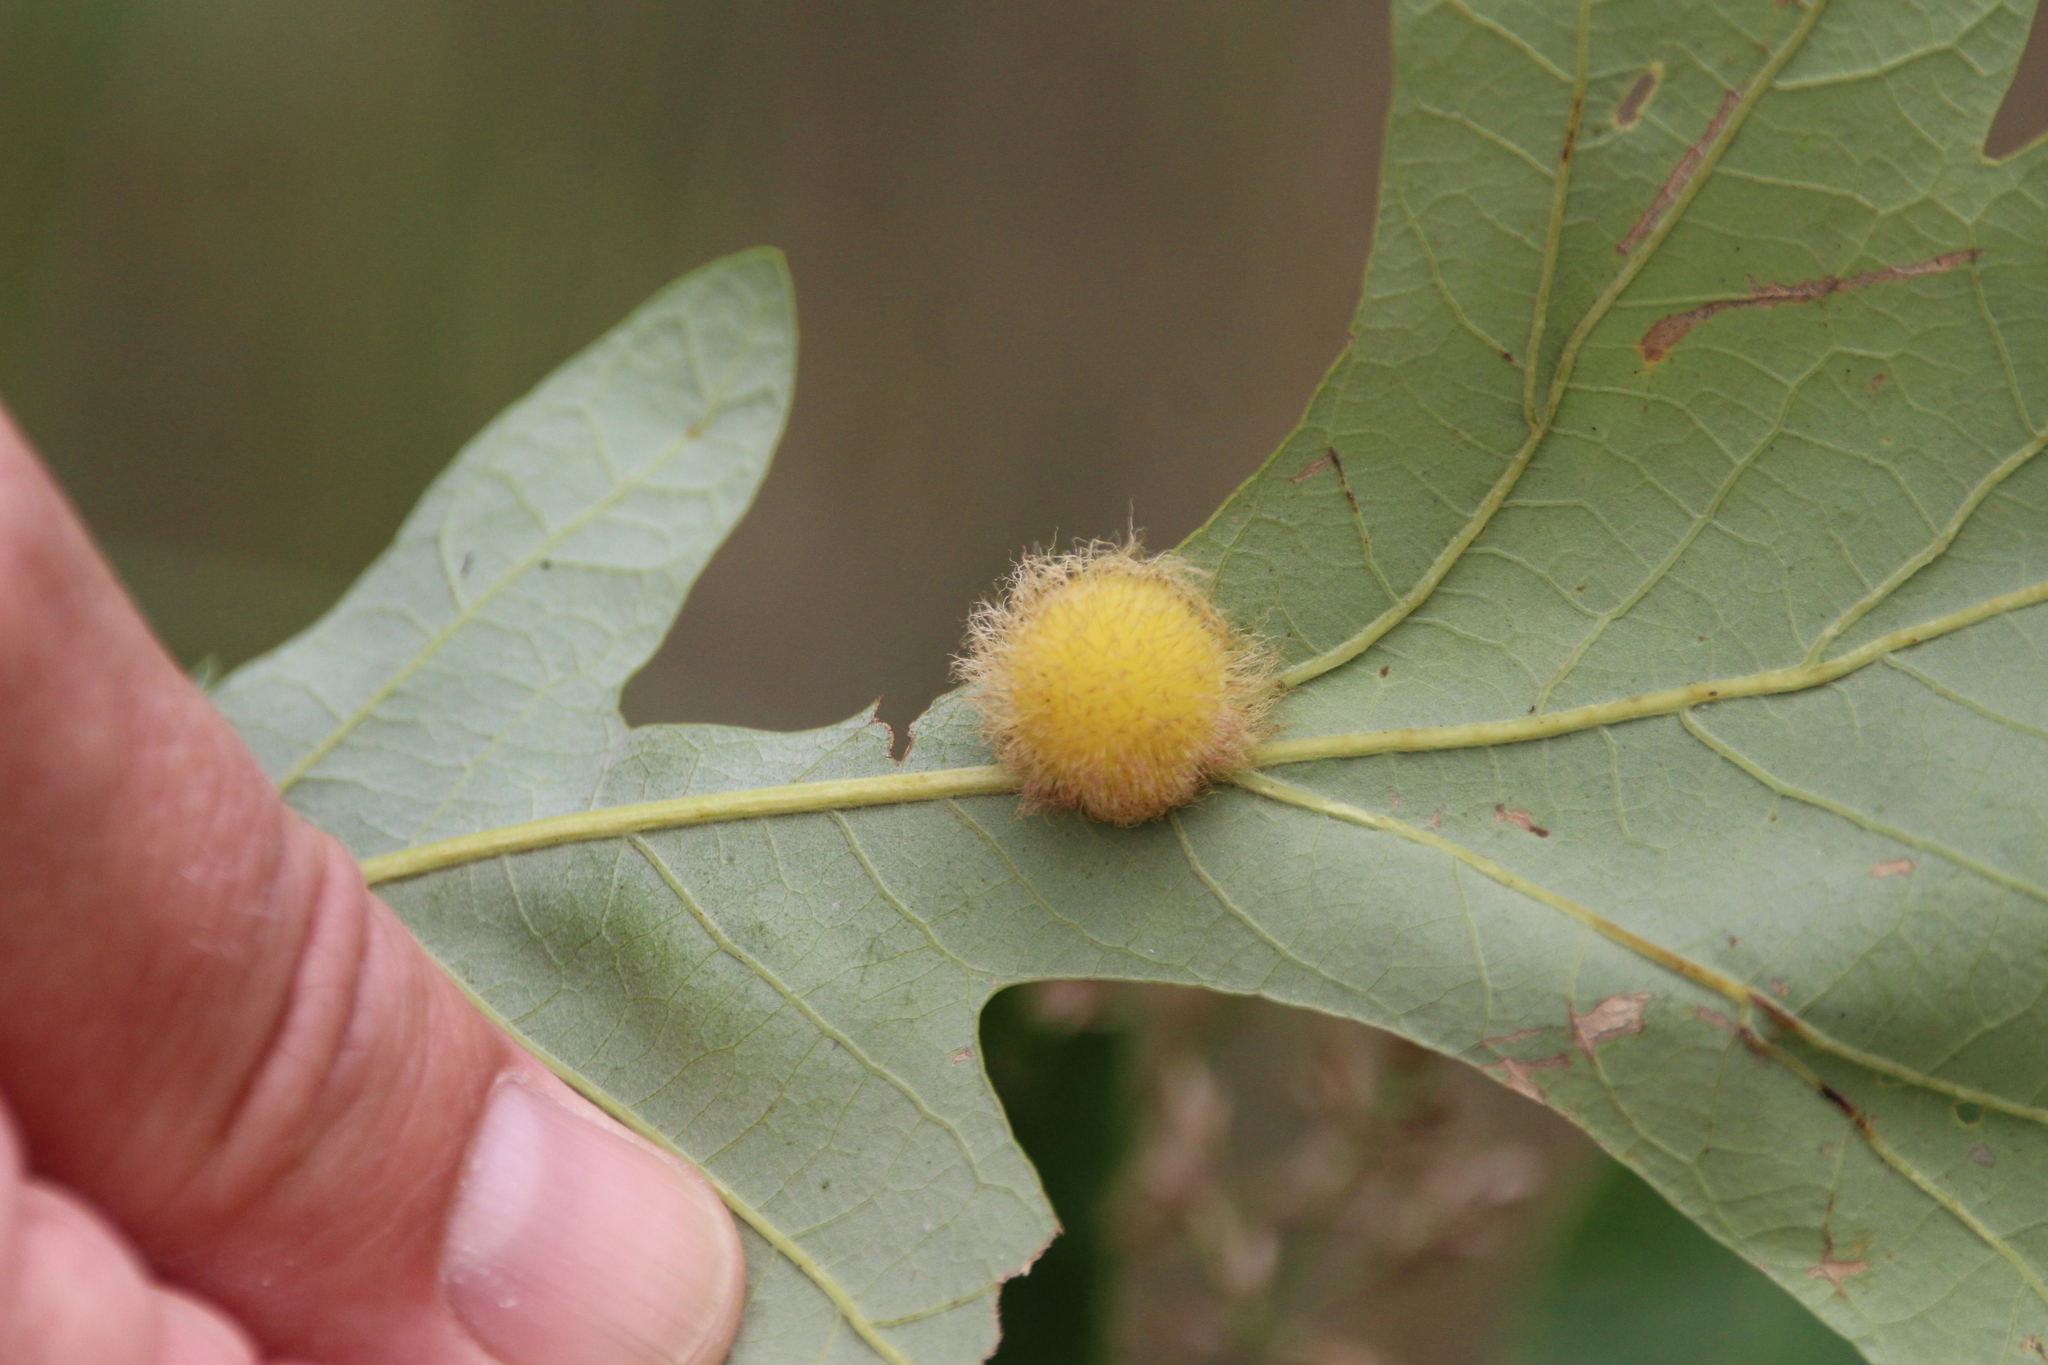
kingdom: Animalia
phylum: Arthropoda
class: Insecta
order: Hymenoptera
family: Cynipidae
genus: Acraspis
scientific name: Acraspis villosa
